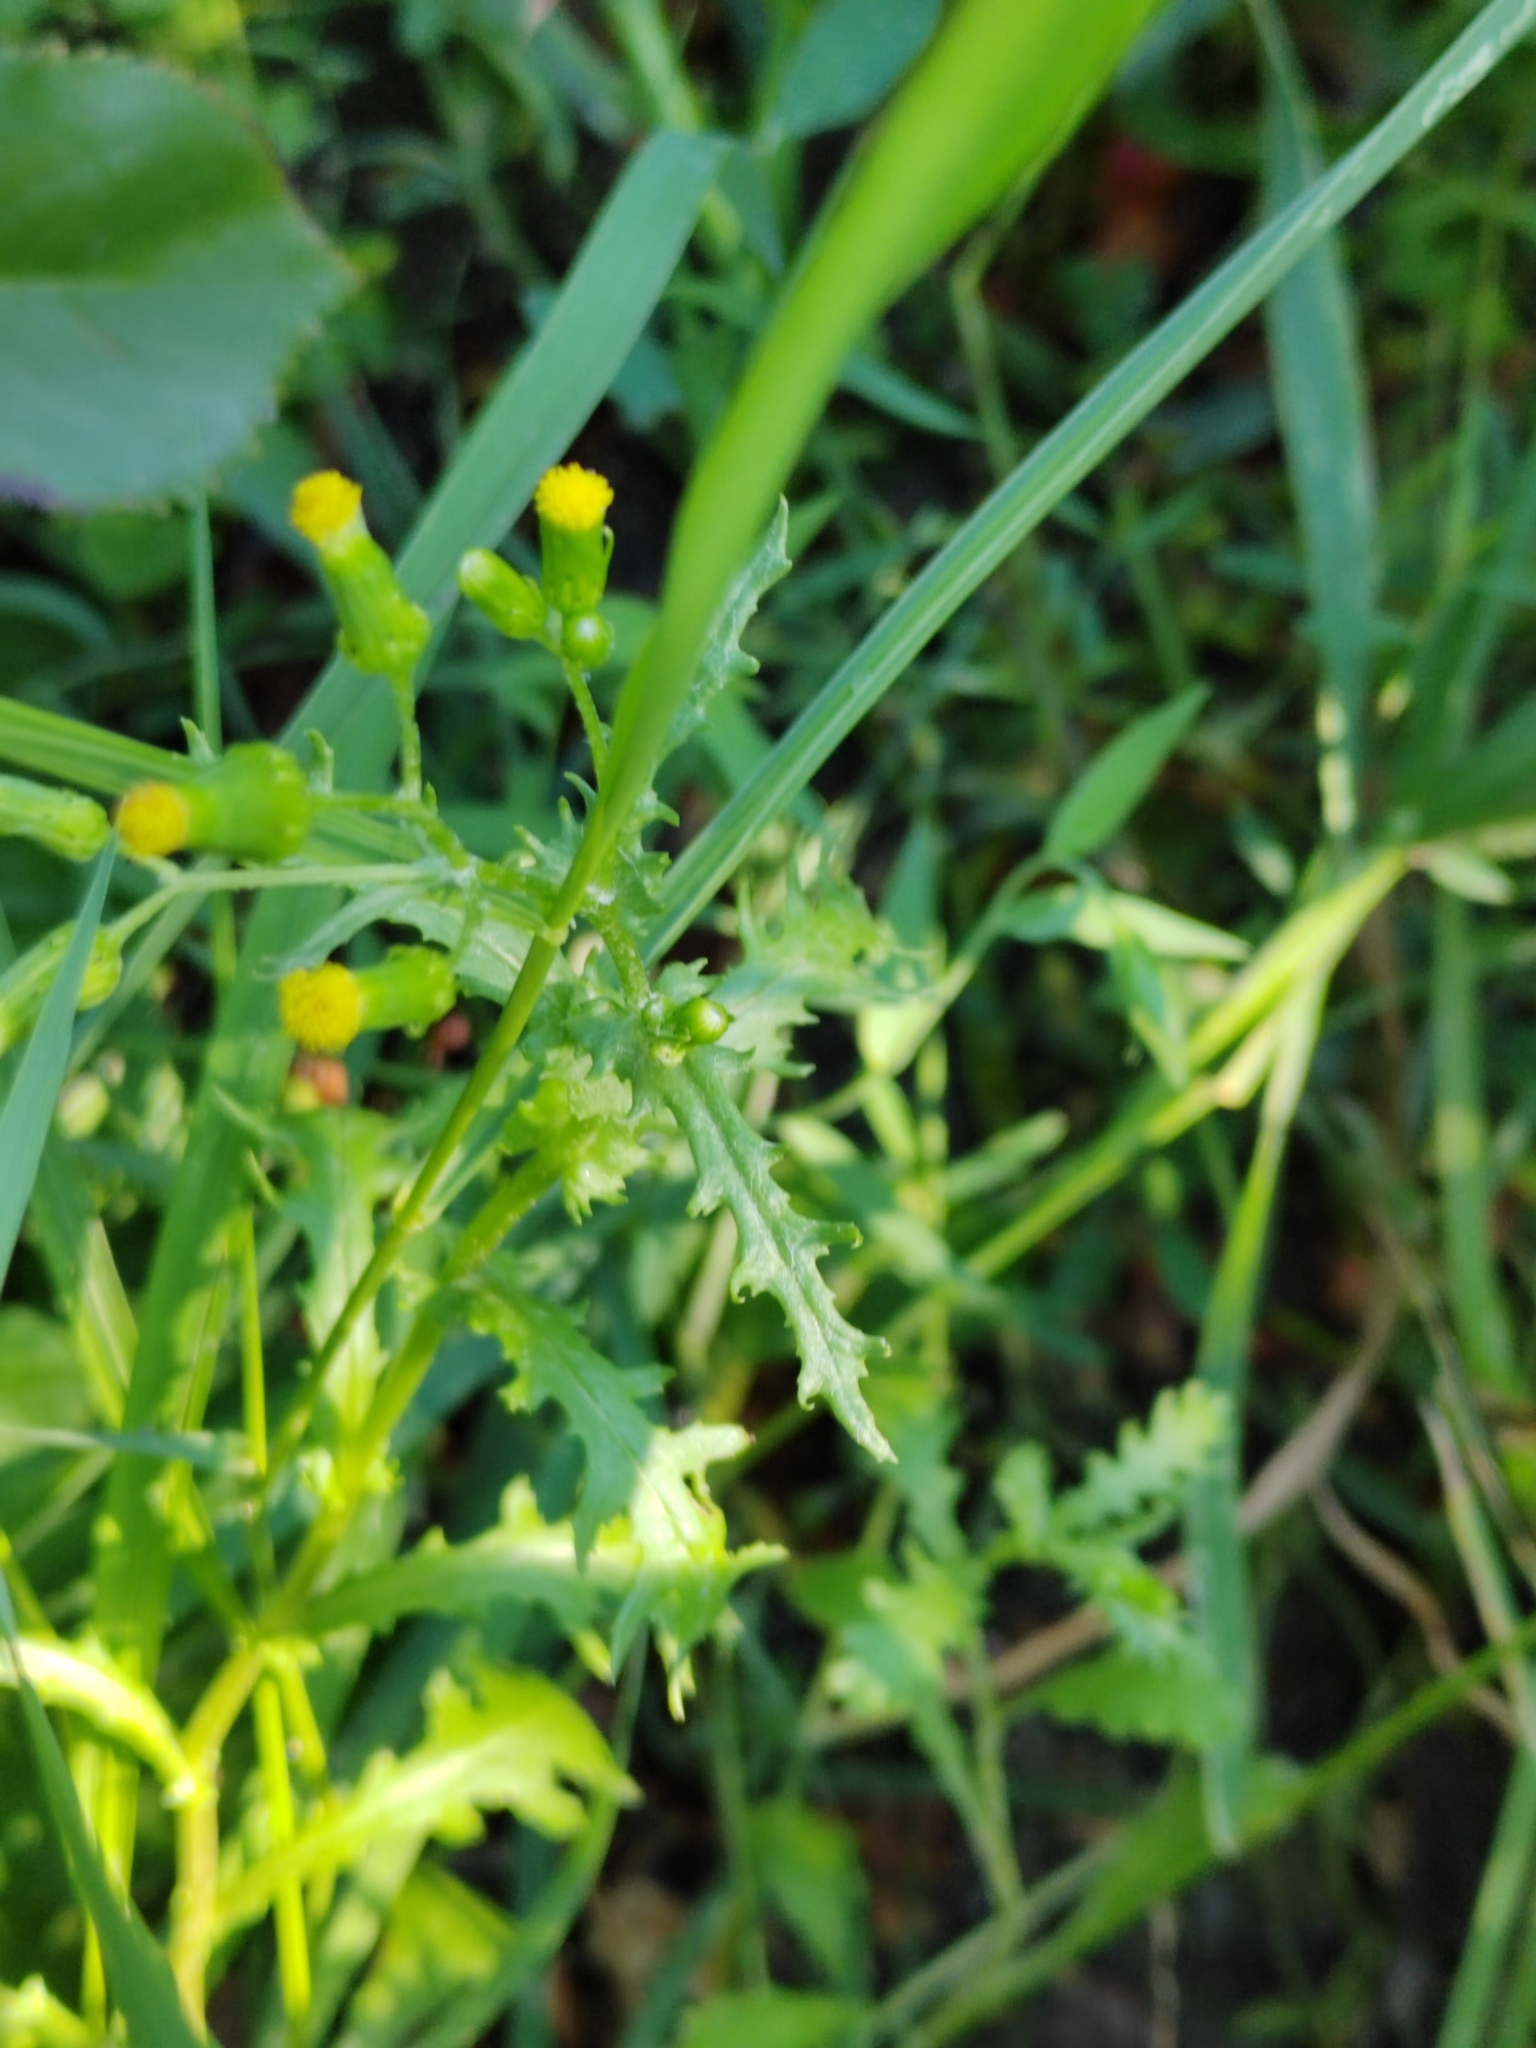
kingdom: Plantae
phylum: Tracheophyta
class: Magnoliopsida
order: Asterales
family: Asteraceae
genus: Senecio
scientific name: Senecio vulgaris
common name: Old-man-in-the-spring
